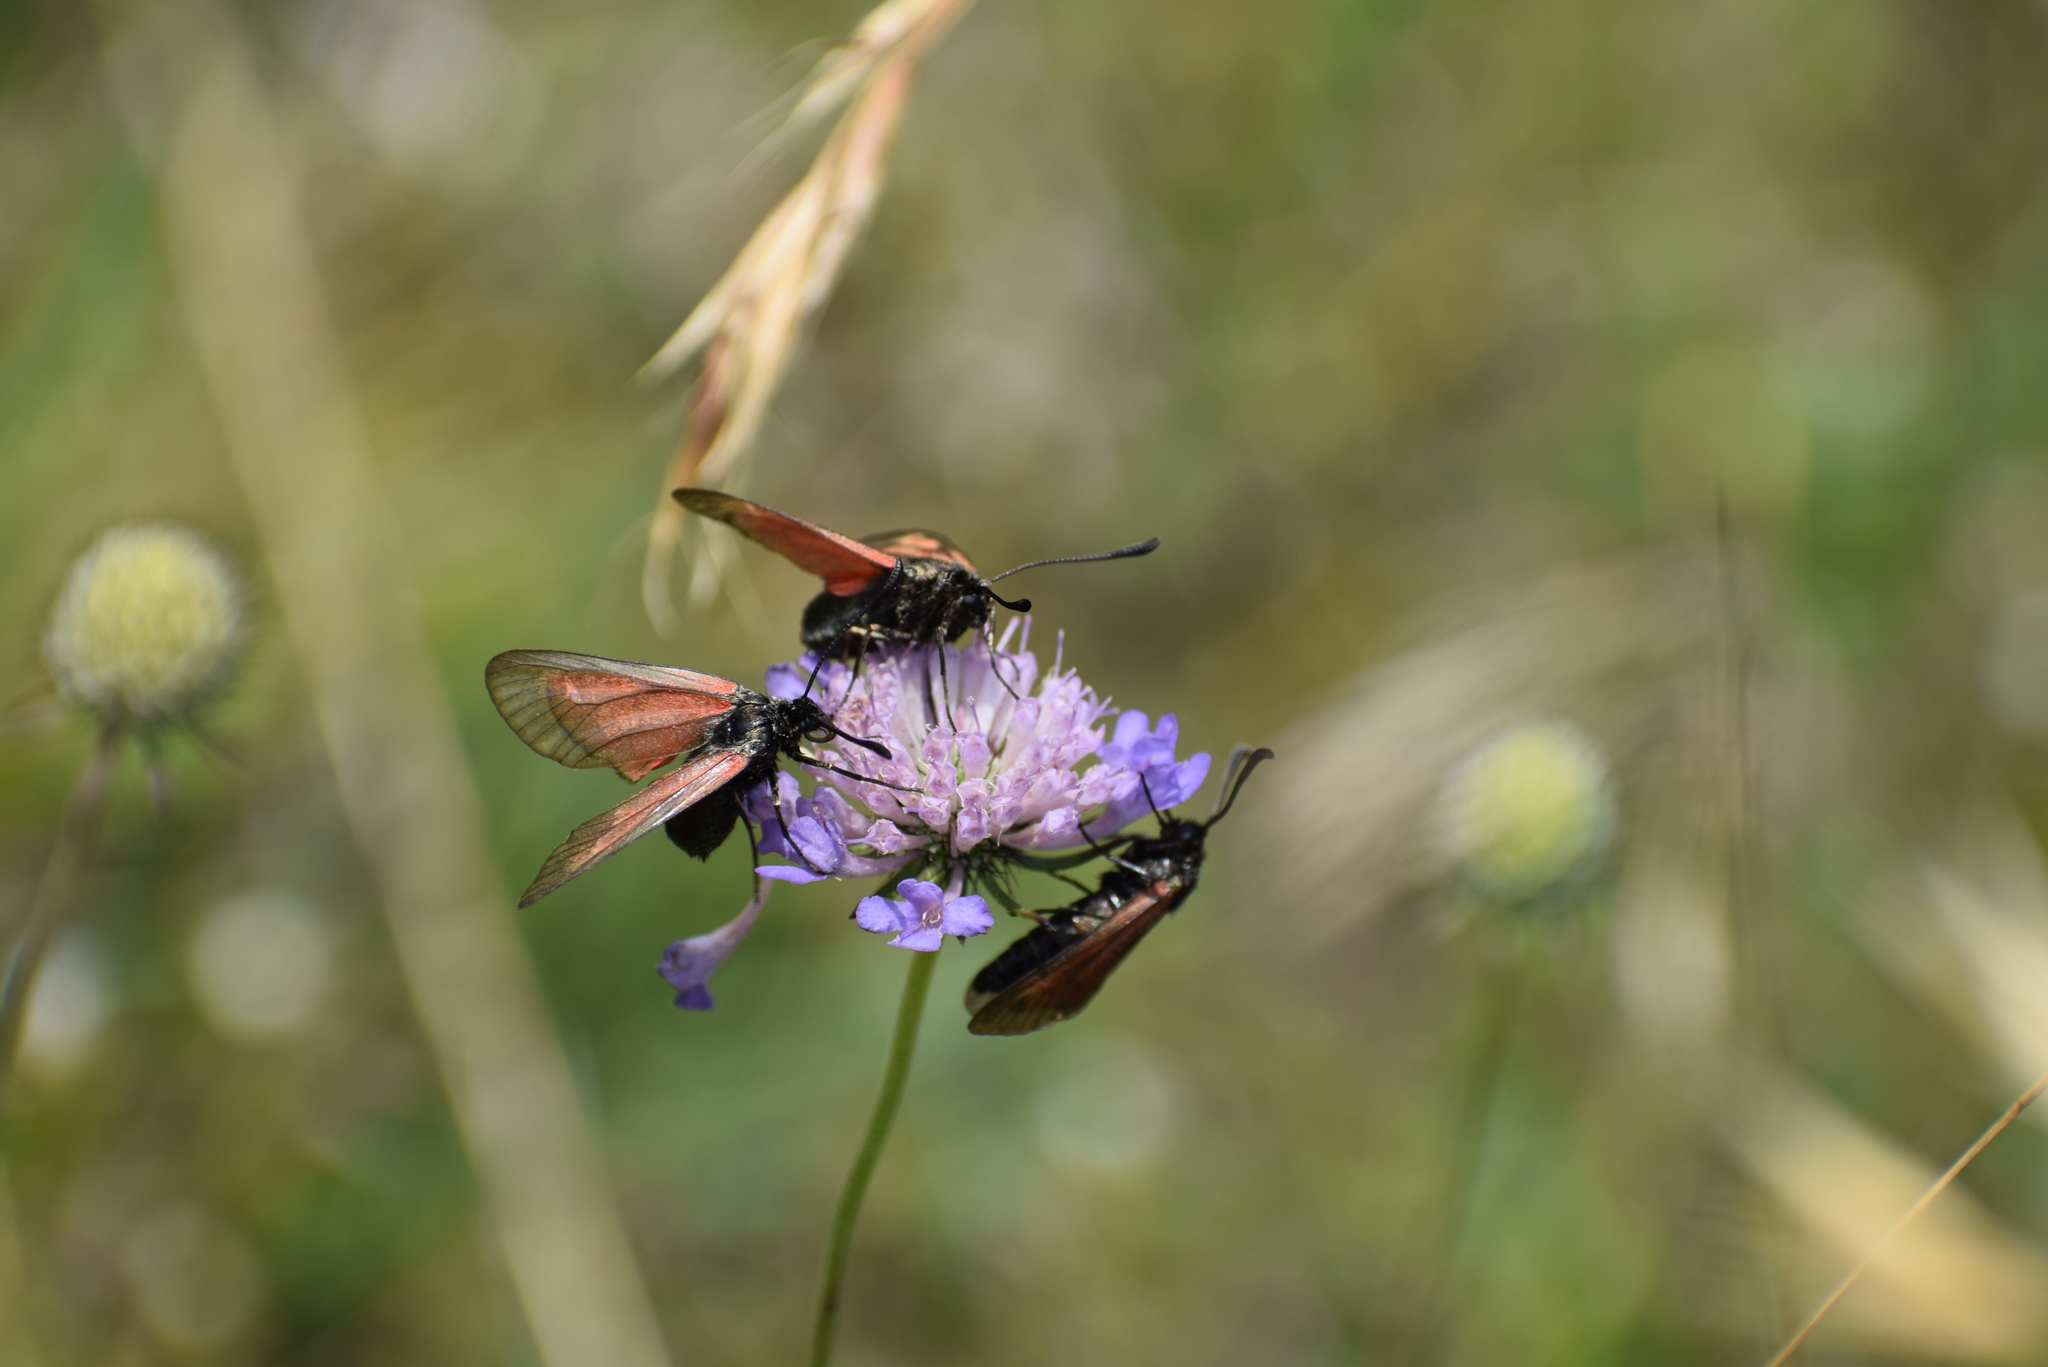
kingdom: Animalia
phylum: Arthropoda
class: Insecta
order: Lepidoptera
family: Zygaenidae
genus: Zygaena
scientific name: Zygaena filipendulae
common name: Six-spot burnet
